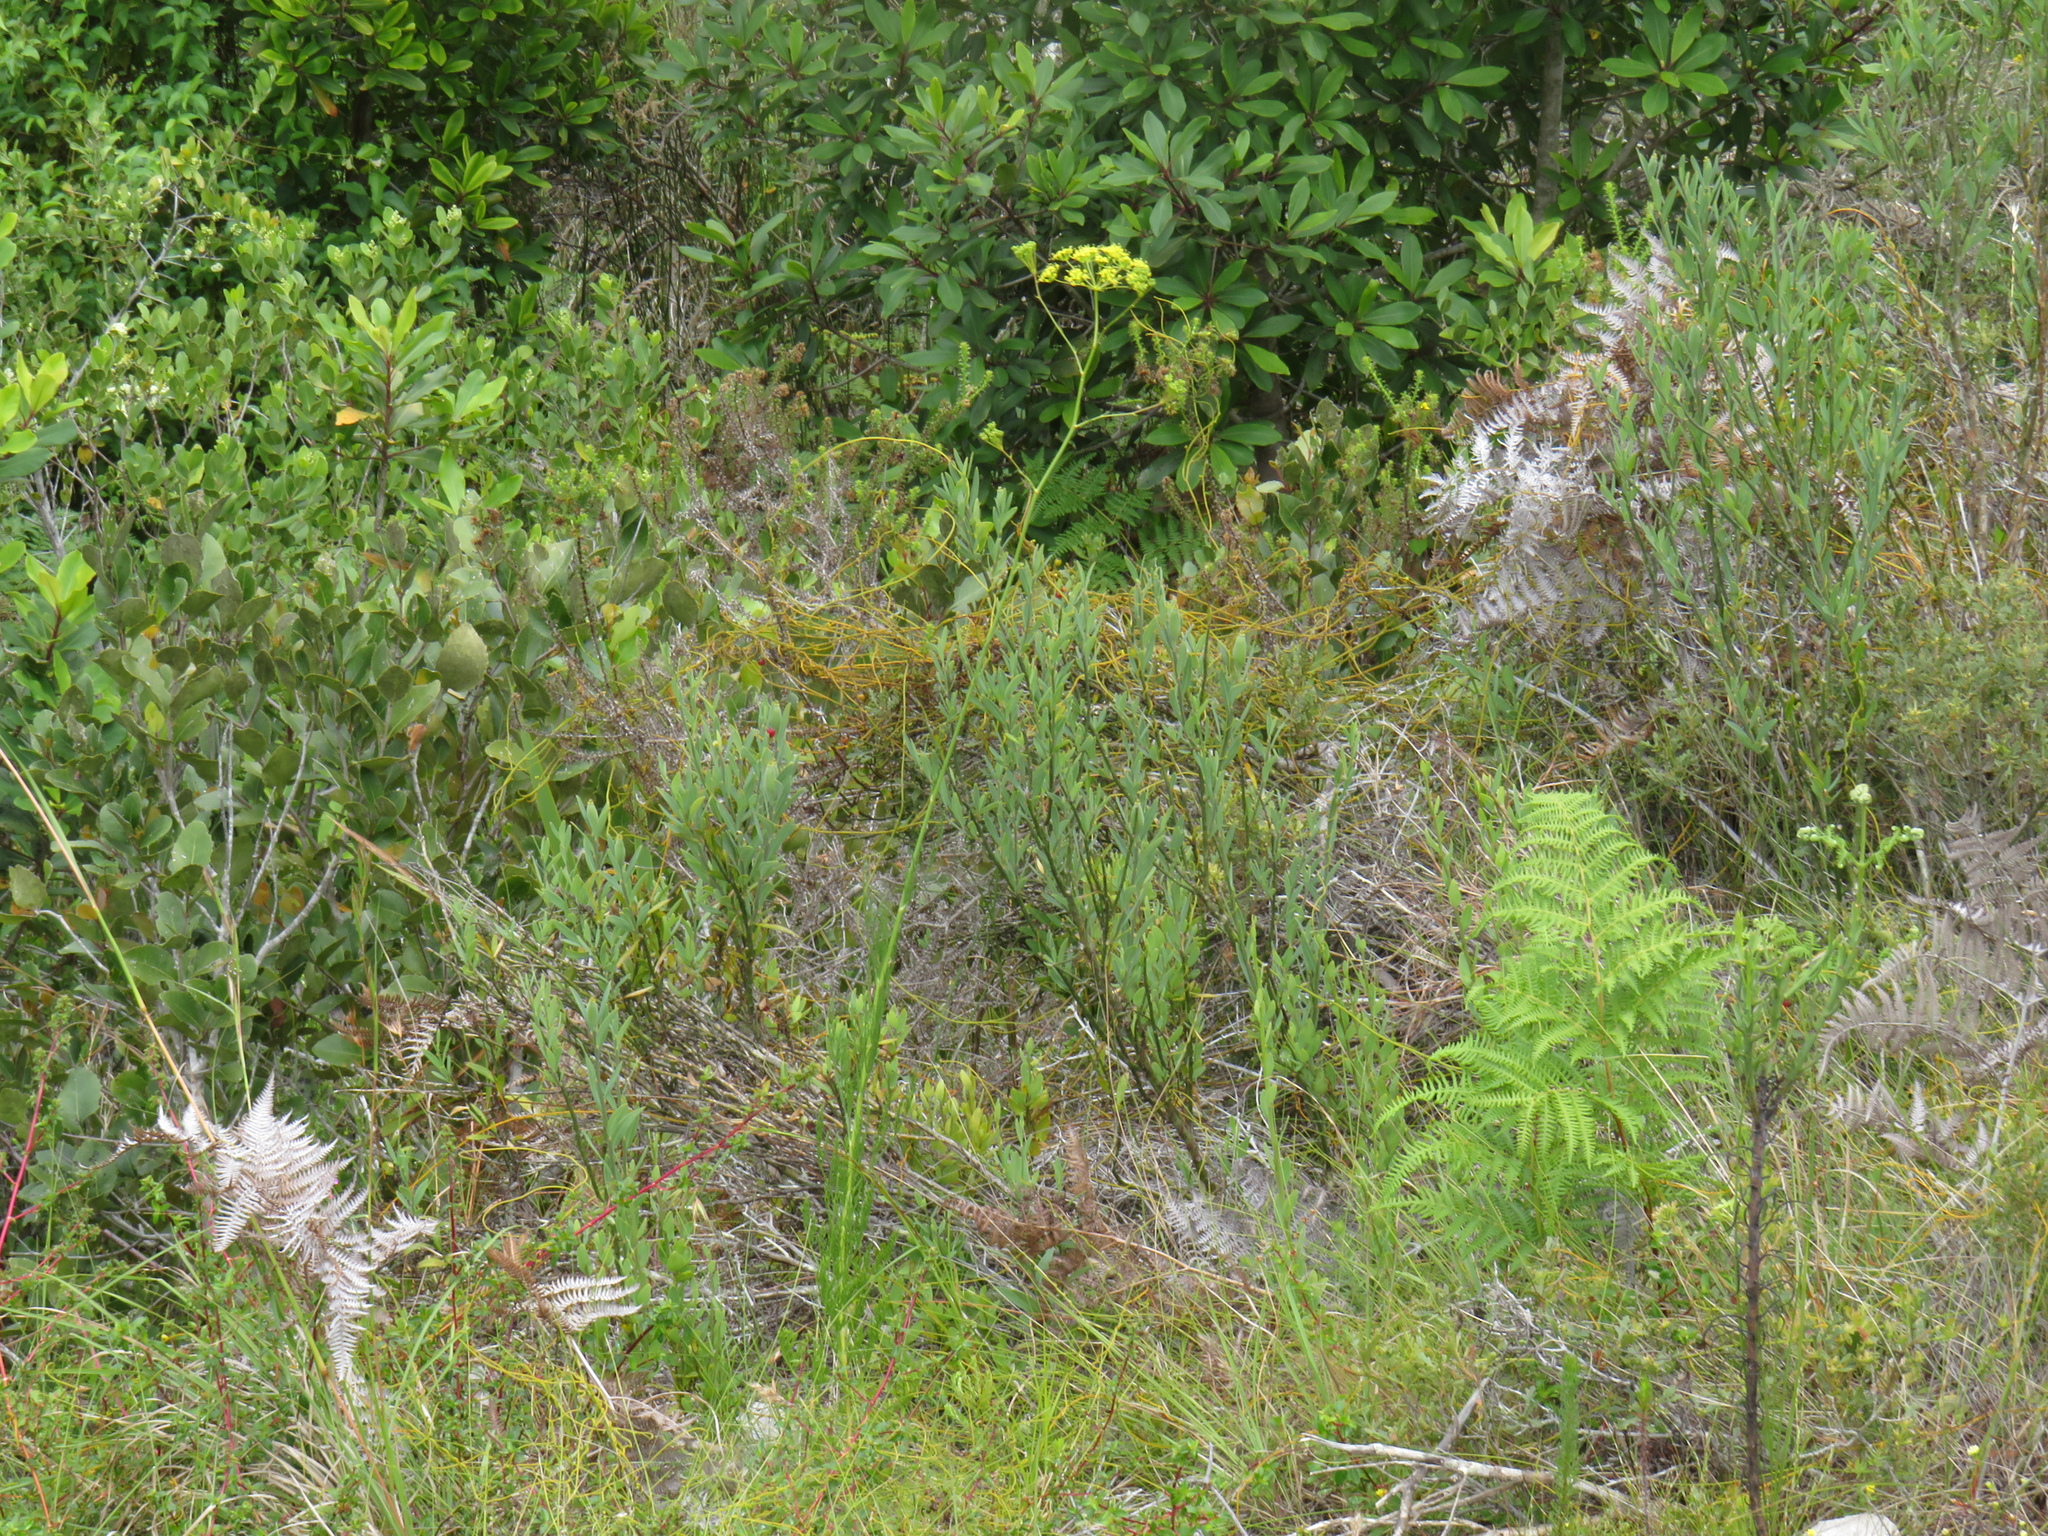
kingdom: Plantae
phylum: Tracheophyta
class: Magnoliopsida
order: Apiales
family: Apiaceae
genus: Notobubon
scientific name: Notobubon ferulaceum
